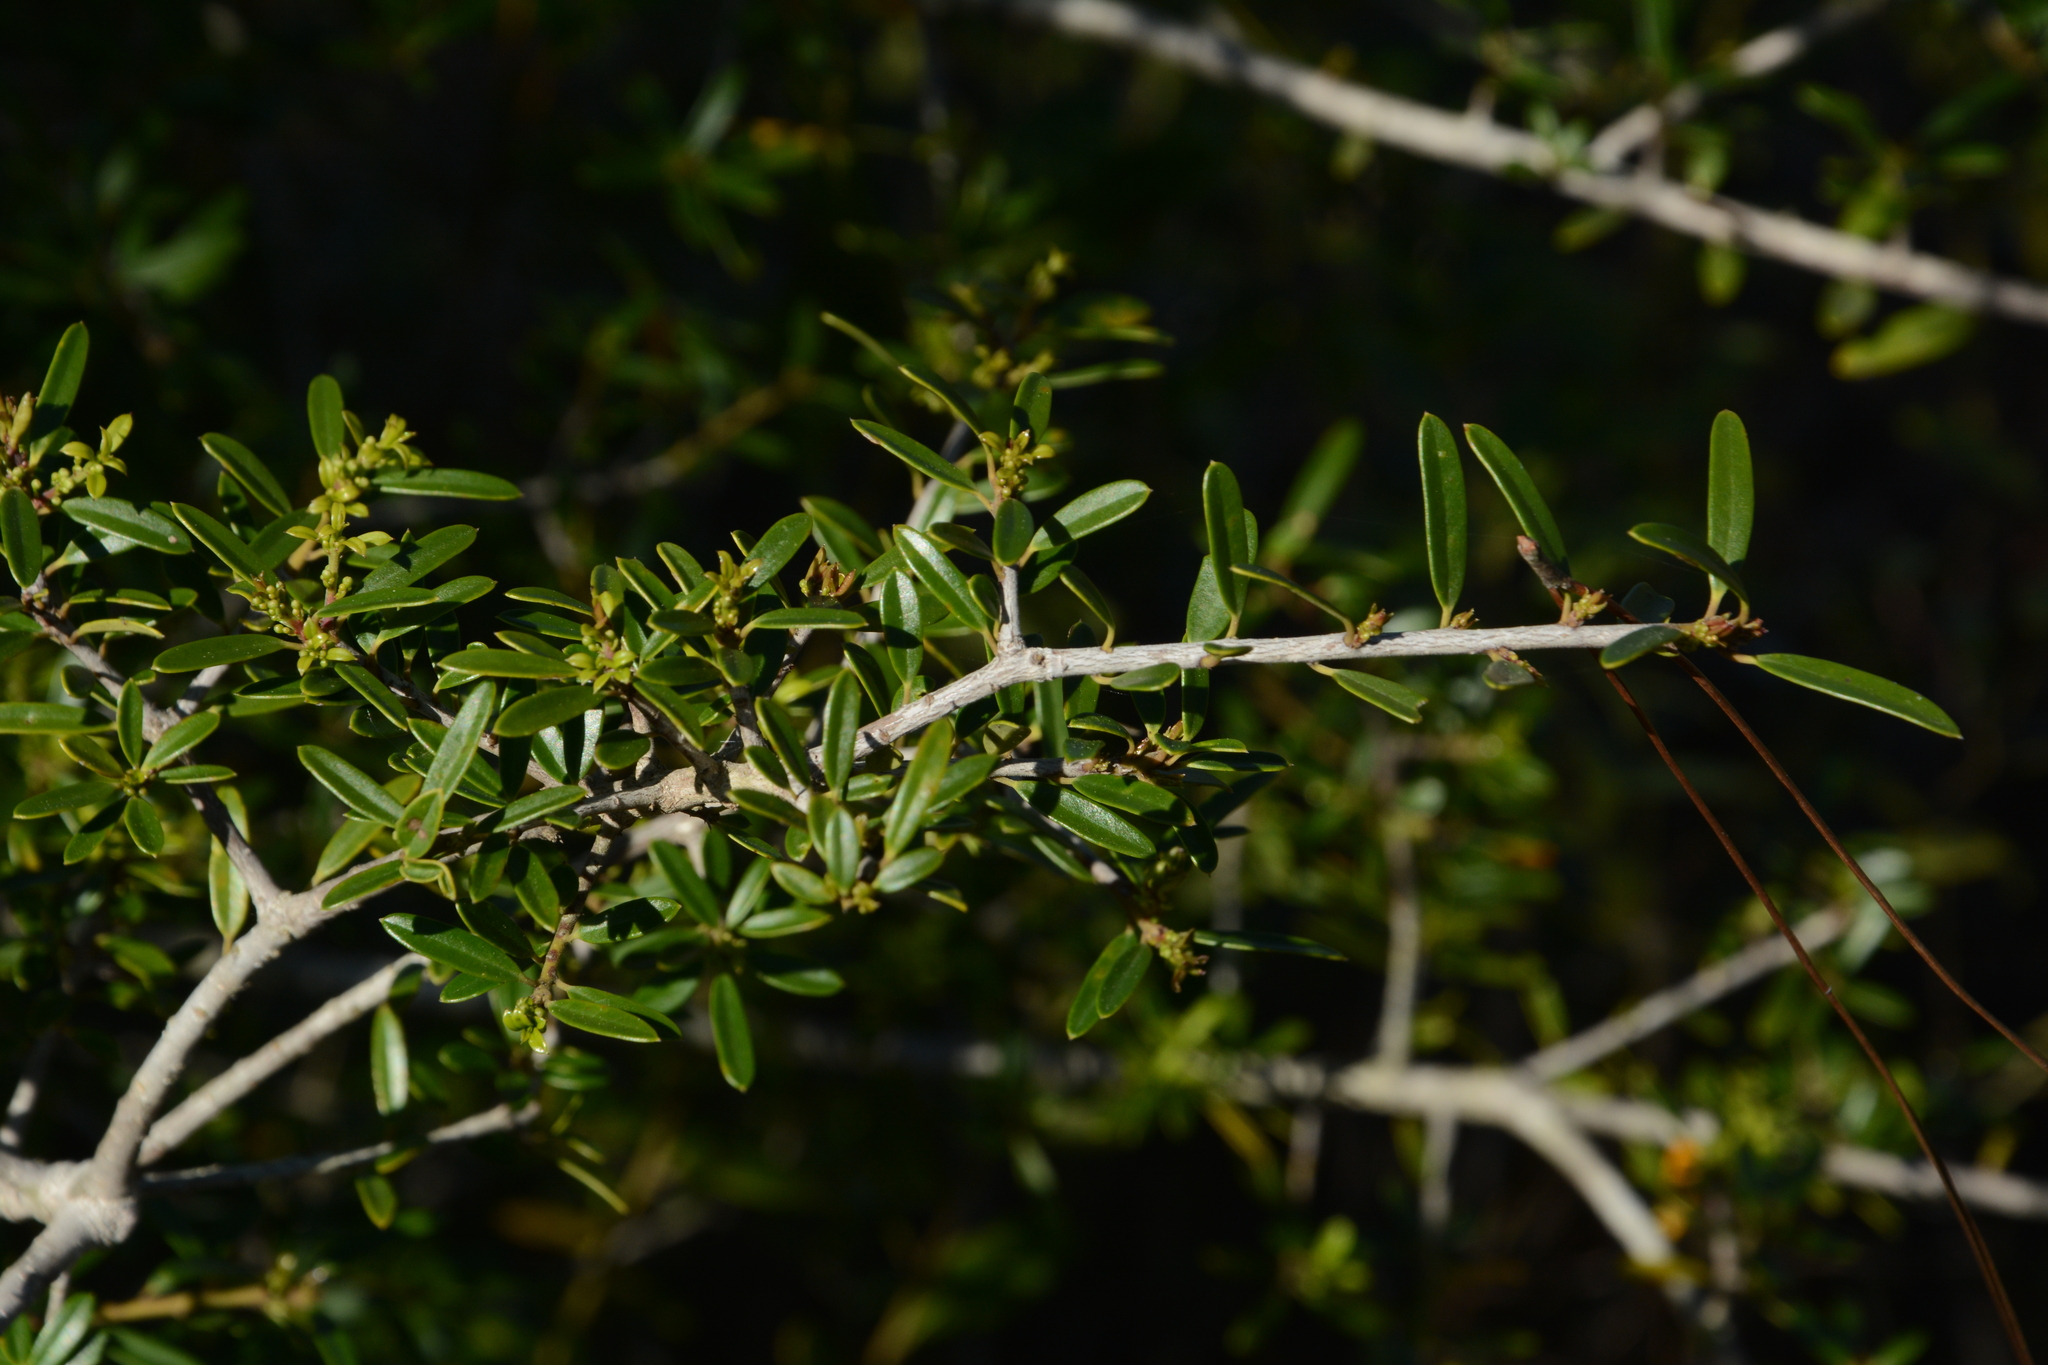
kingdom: Plantae
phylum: Tracheophyta
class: Magnoliopsida
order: Aquifoliales
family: Aquifoliaceae
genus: Ilex
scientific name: Ilex myrtifolia
